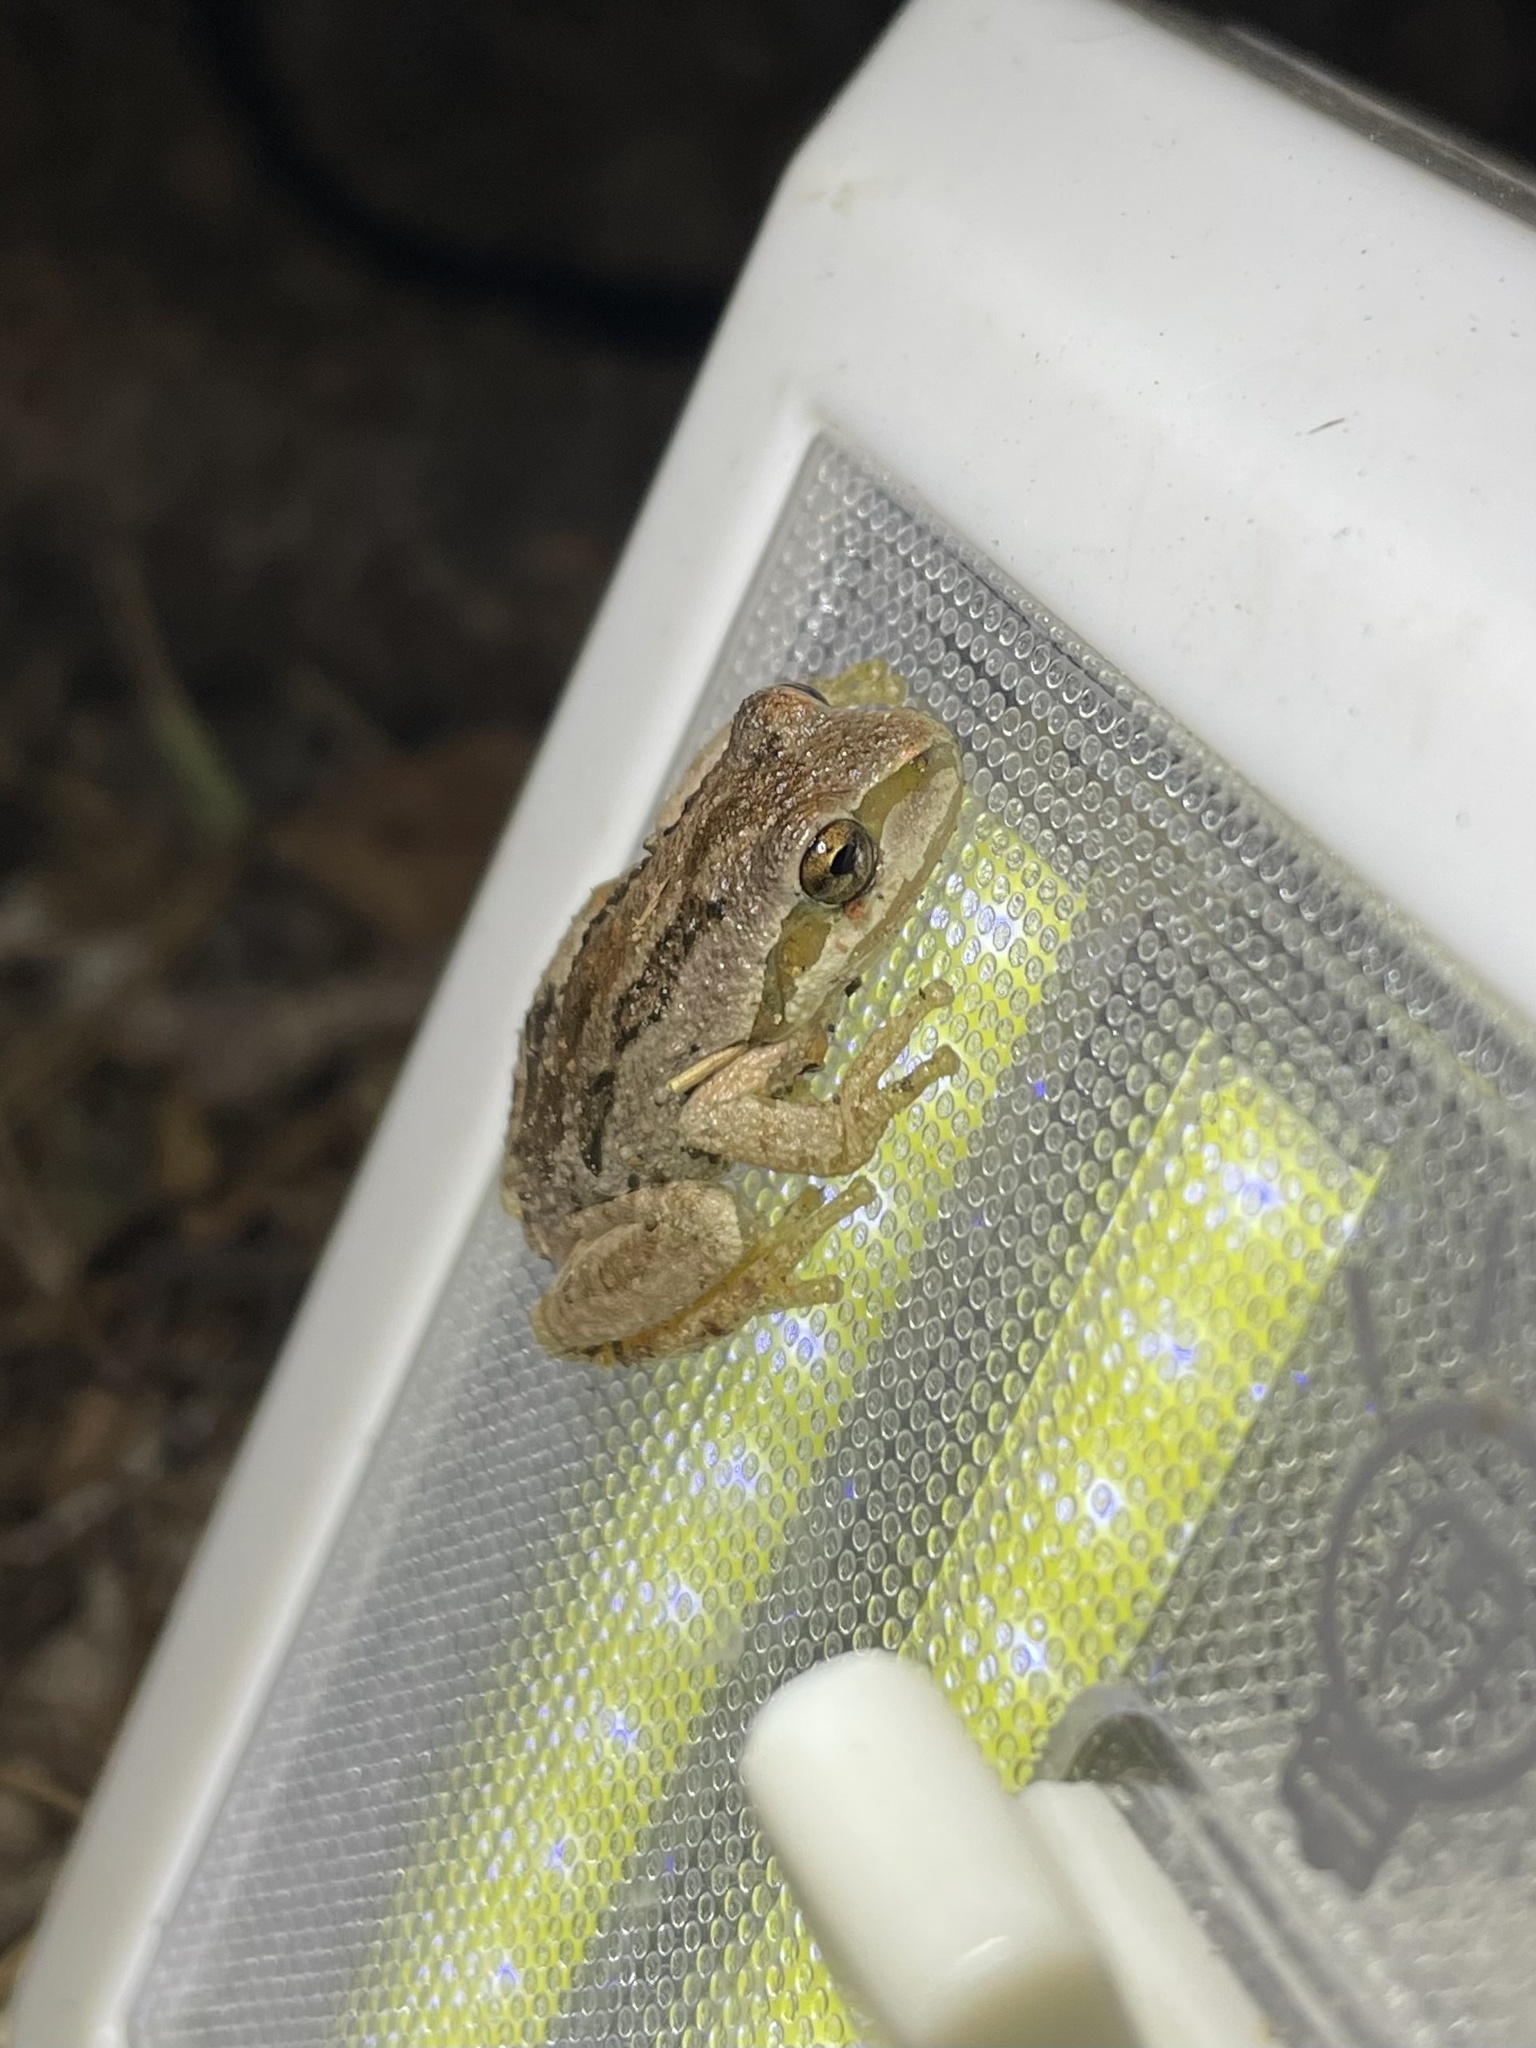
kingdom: Animalia
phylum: Chordata
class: Amphibia
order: Anura
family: Hylidae
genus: Pseudacris
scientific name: Pseudacris regilla
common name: Pacific chorus frog
